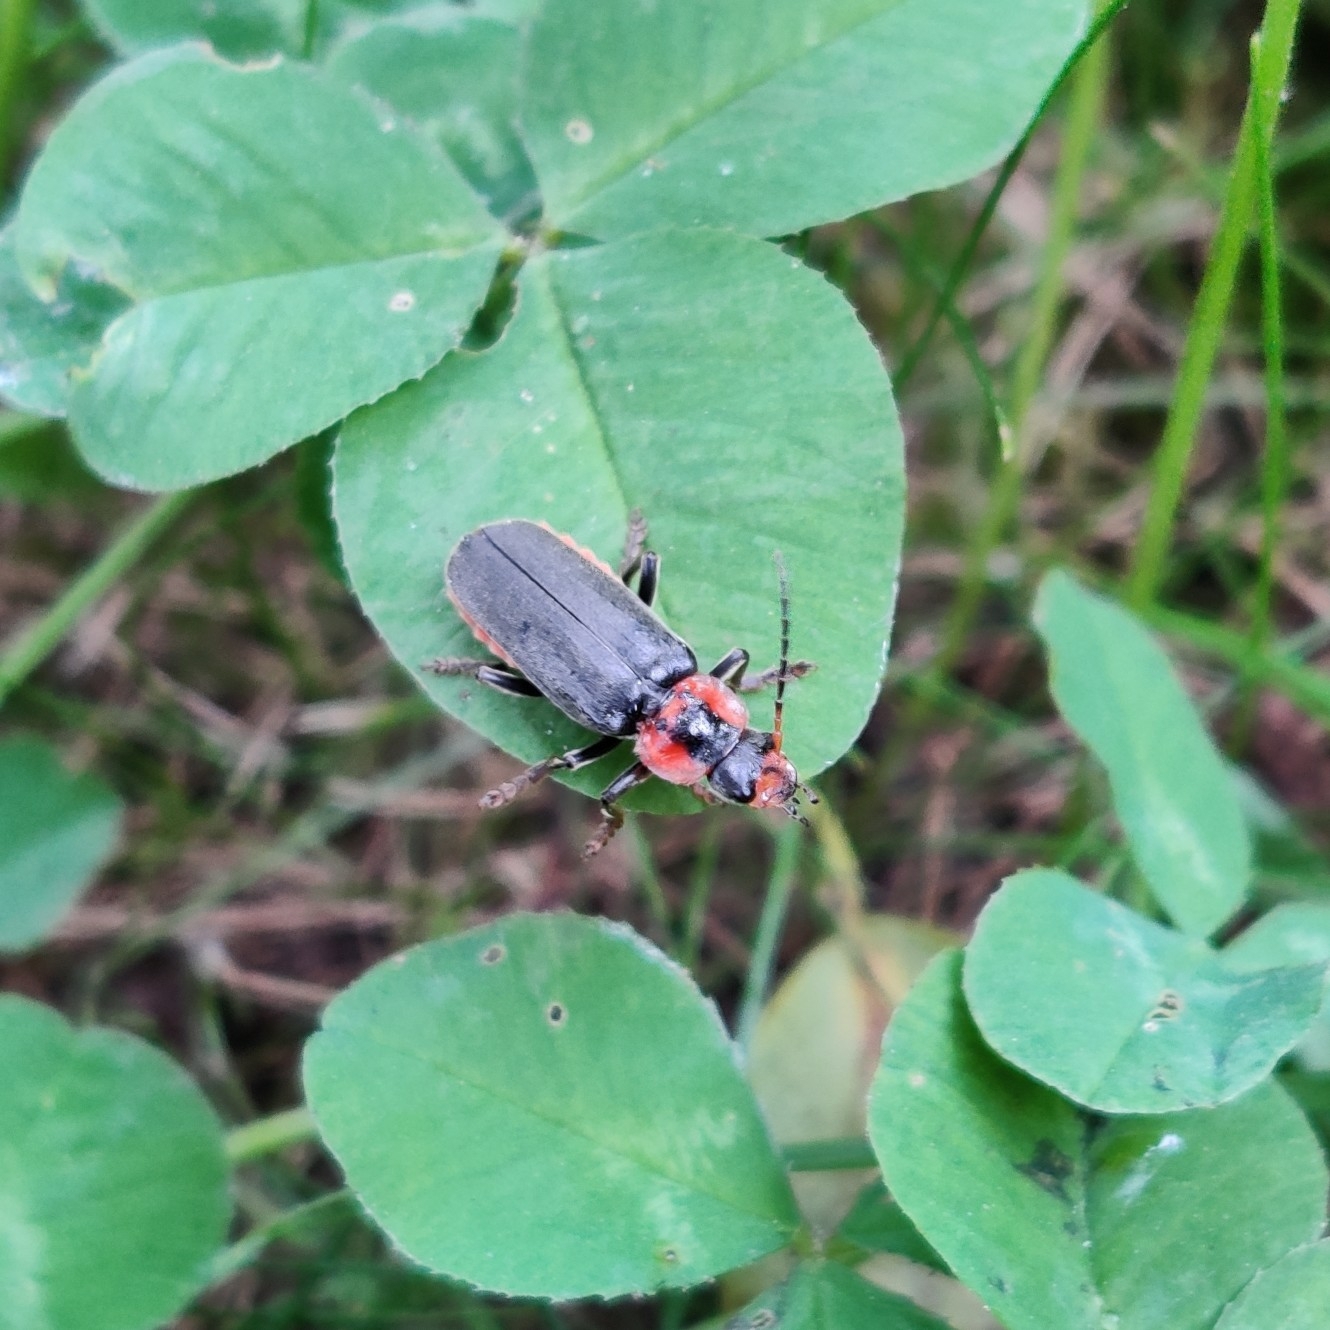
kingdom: Animalia
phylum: Arthropoda
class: Insecta
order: Coleoptera
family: Cantharidae
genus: Cantharis
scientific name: Cantharis fusca
